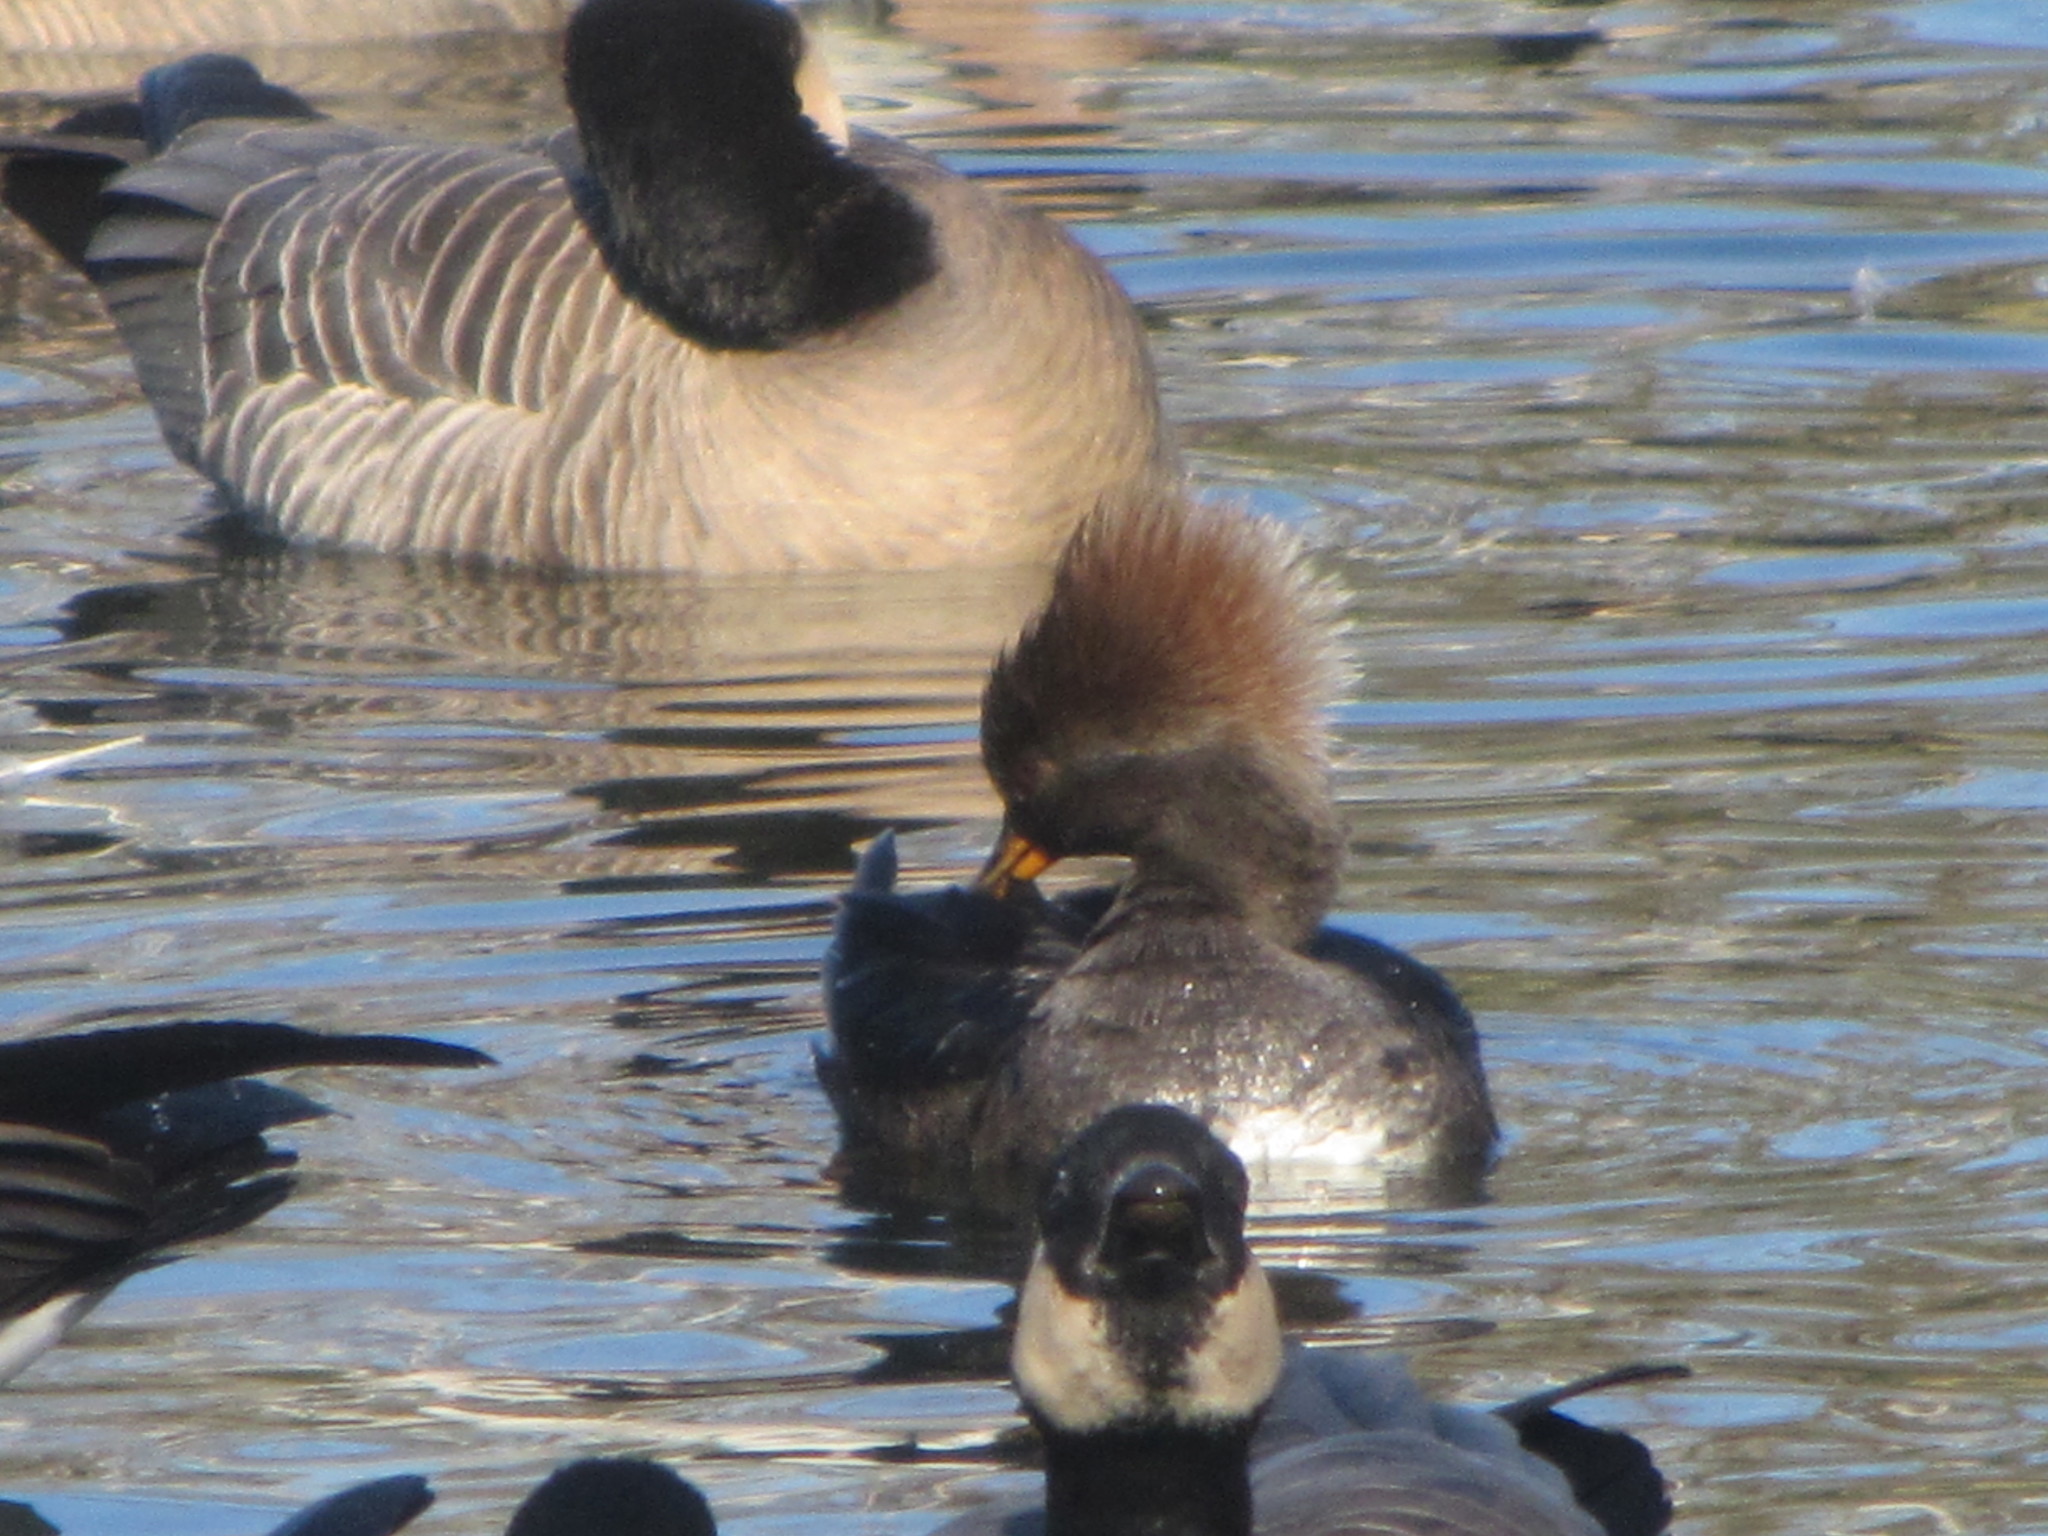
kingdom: Animalia
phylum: Chordata
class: Aves
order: Anseriformes
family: Anatidae
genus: Lophodytes
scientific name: Lophodytes cucullatus
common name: Hooded merganser
